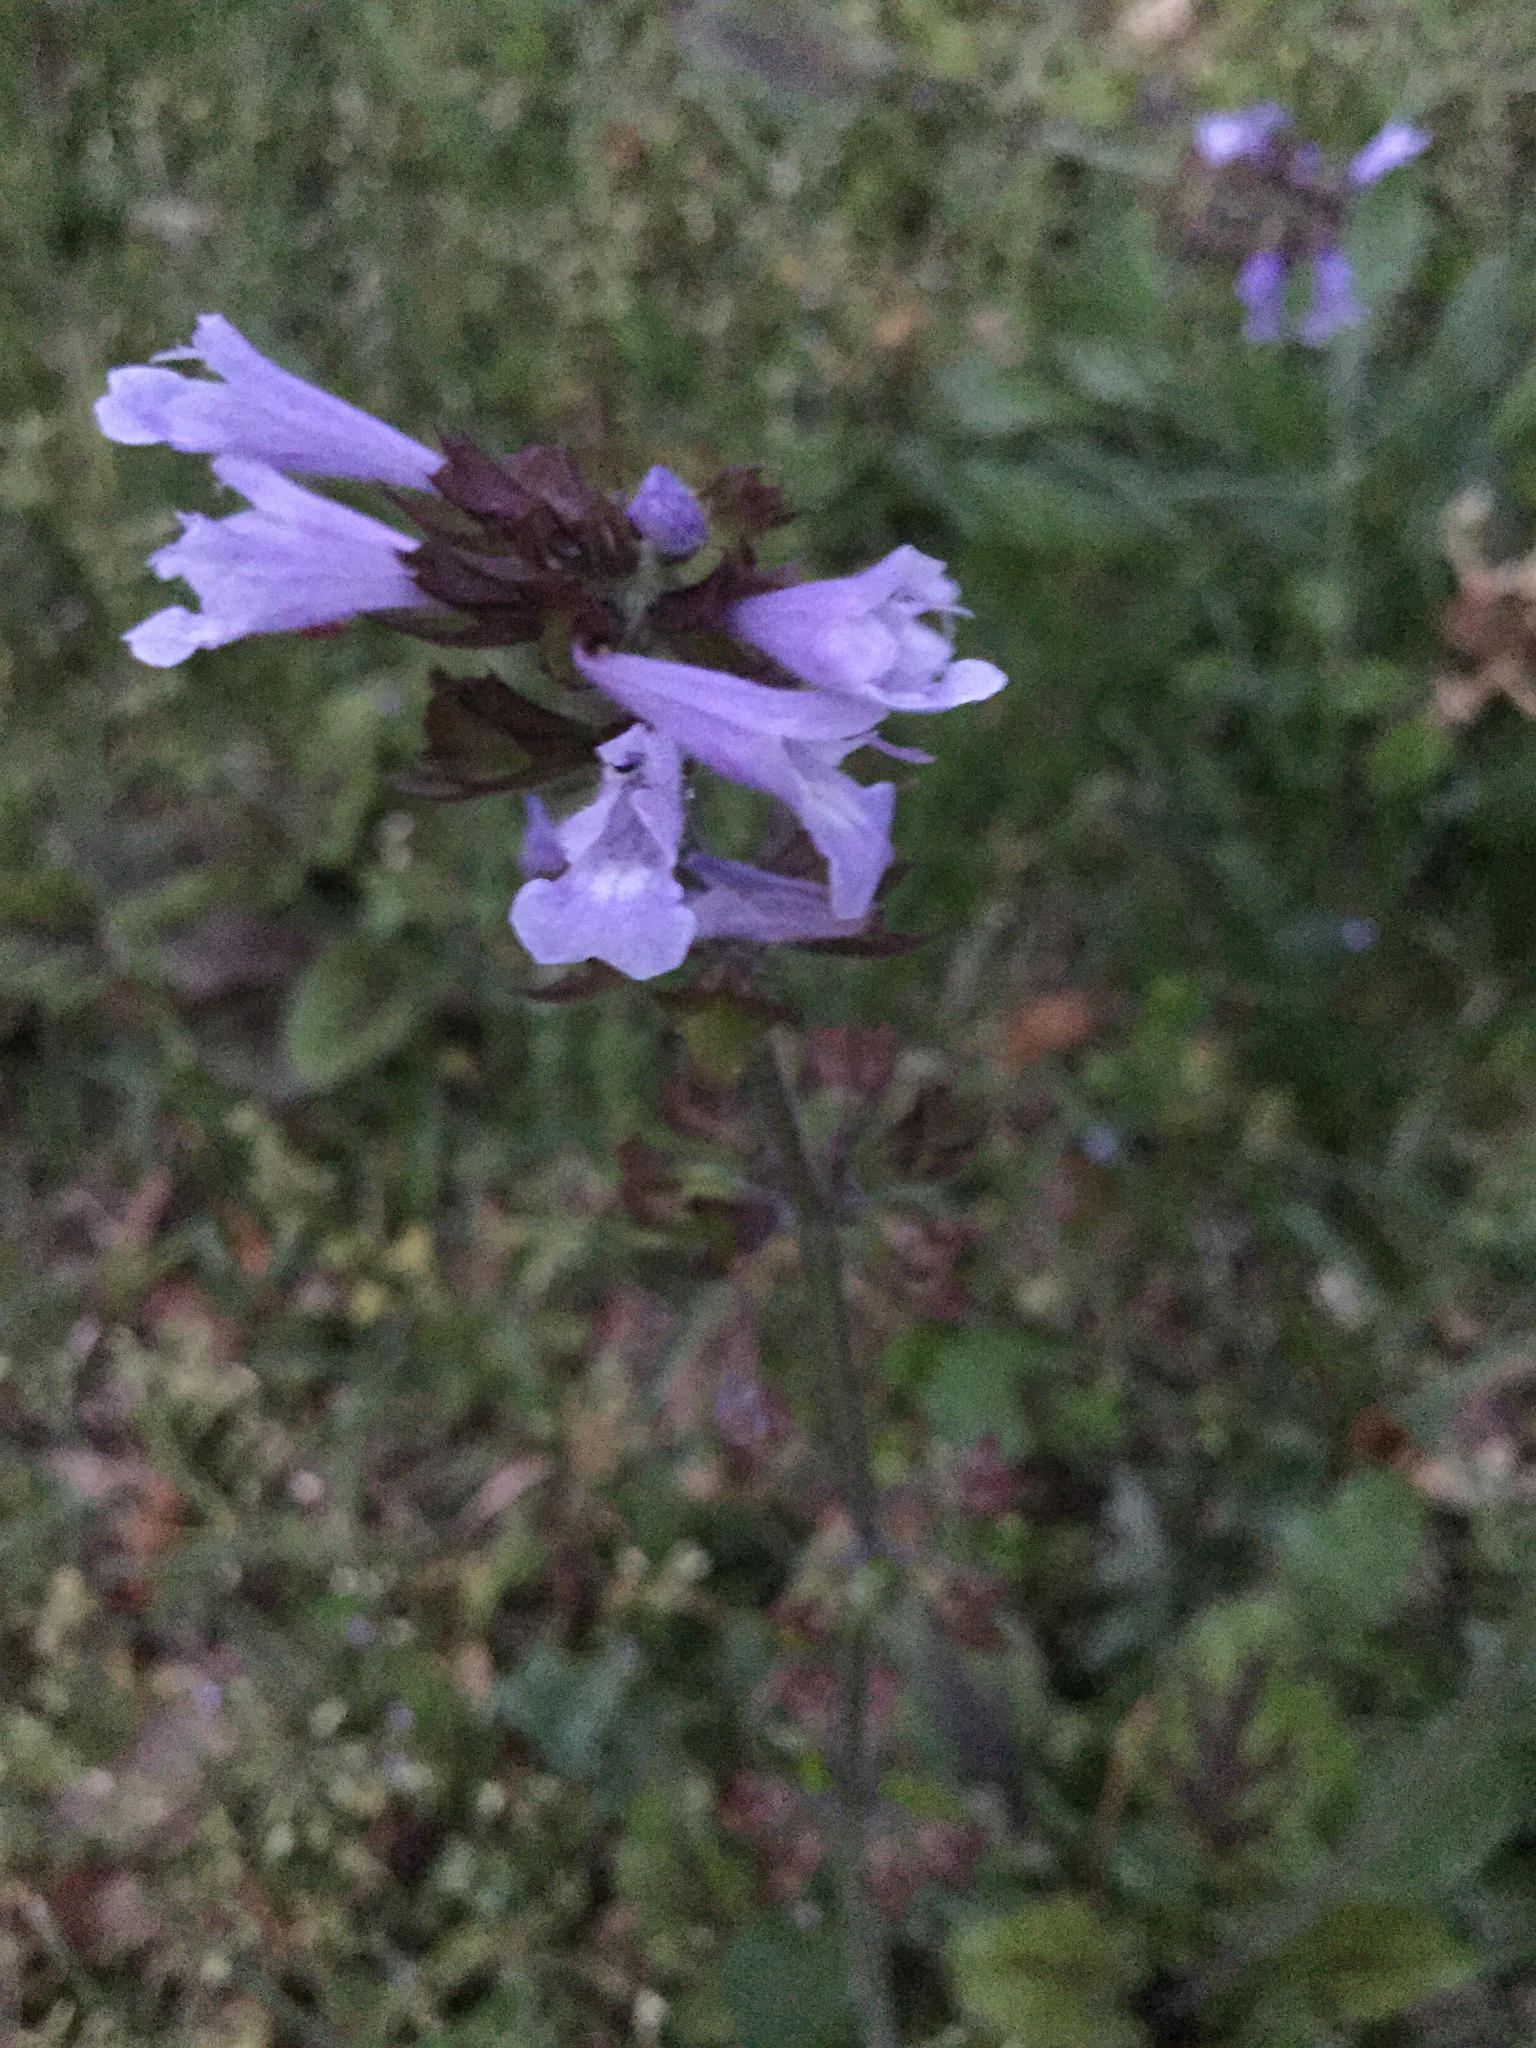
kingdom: Plantae
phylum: Tracheophyta
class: Magnoliopsida
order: Lamiales
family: Lamiaceae
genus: Salvia
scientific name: Salvia lyrata
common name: Cancerweed
